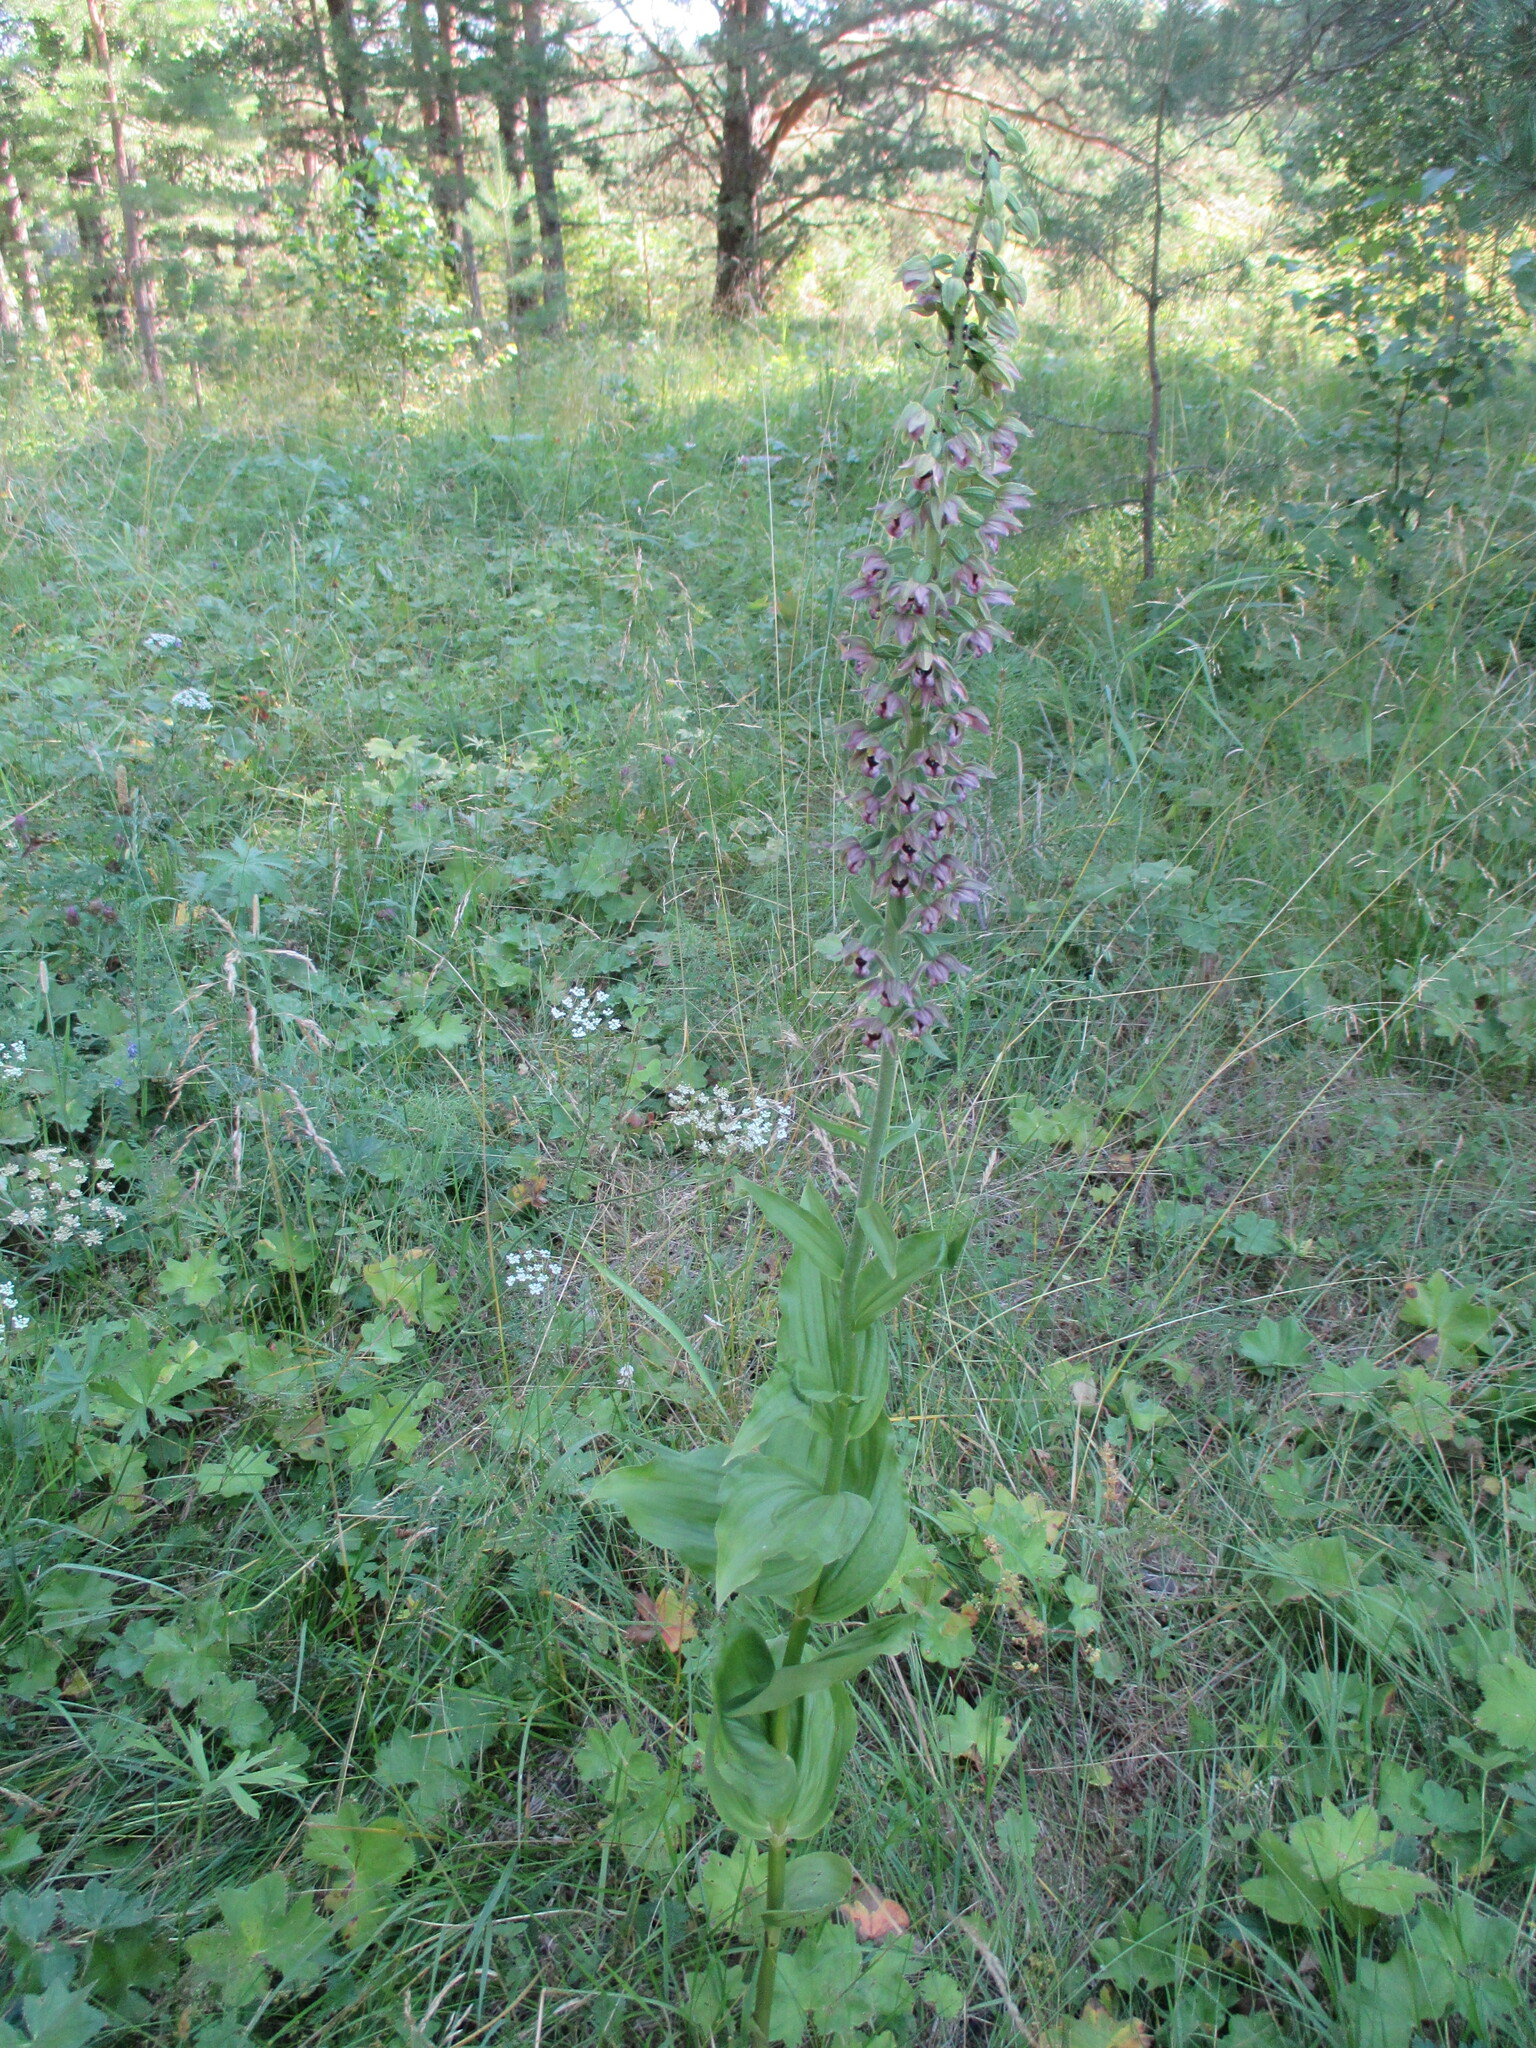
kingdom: Plantae
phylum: Tracheophyta
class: Liliopsida
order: Asparagales
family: Orchidaceae
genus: Epipactis
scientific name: Epipactis helleborine
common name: Broad-leaved helleborine
